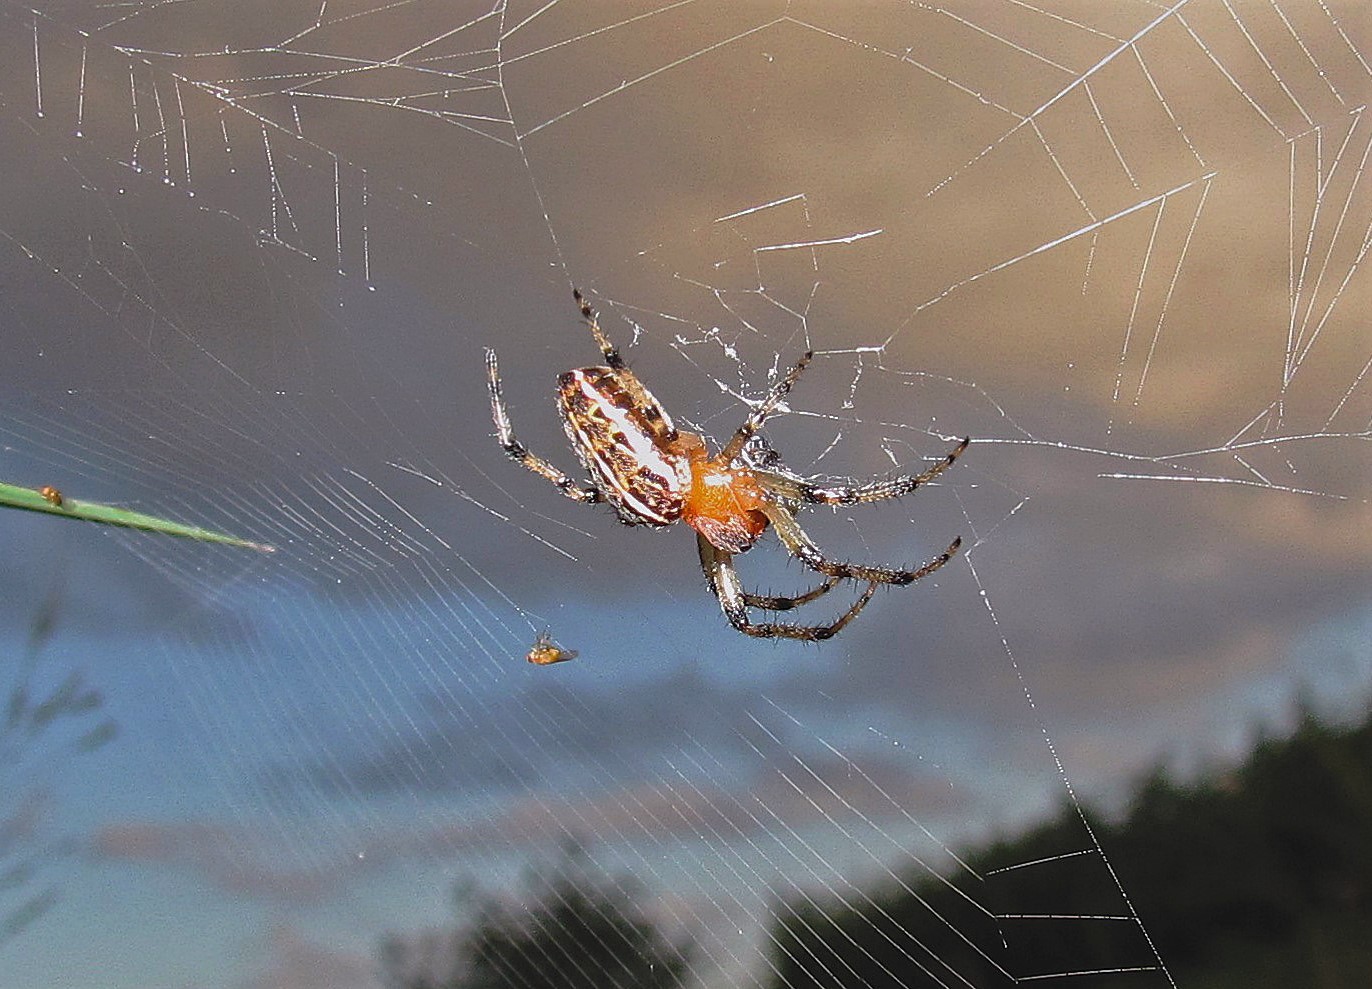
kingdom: Animalia
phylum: Arthropoda
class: Arachnida
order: Araneae
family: Araneidae
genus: Alpaida
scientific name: Alpaida veniliae
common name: Orb weavers
